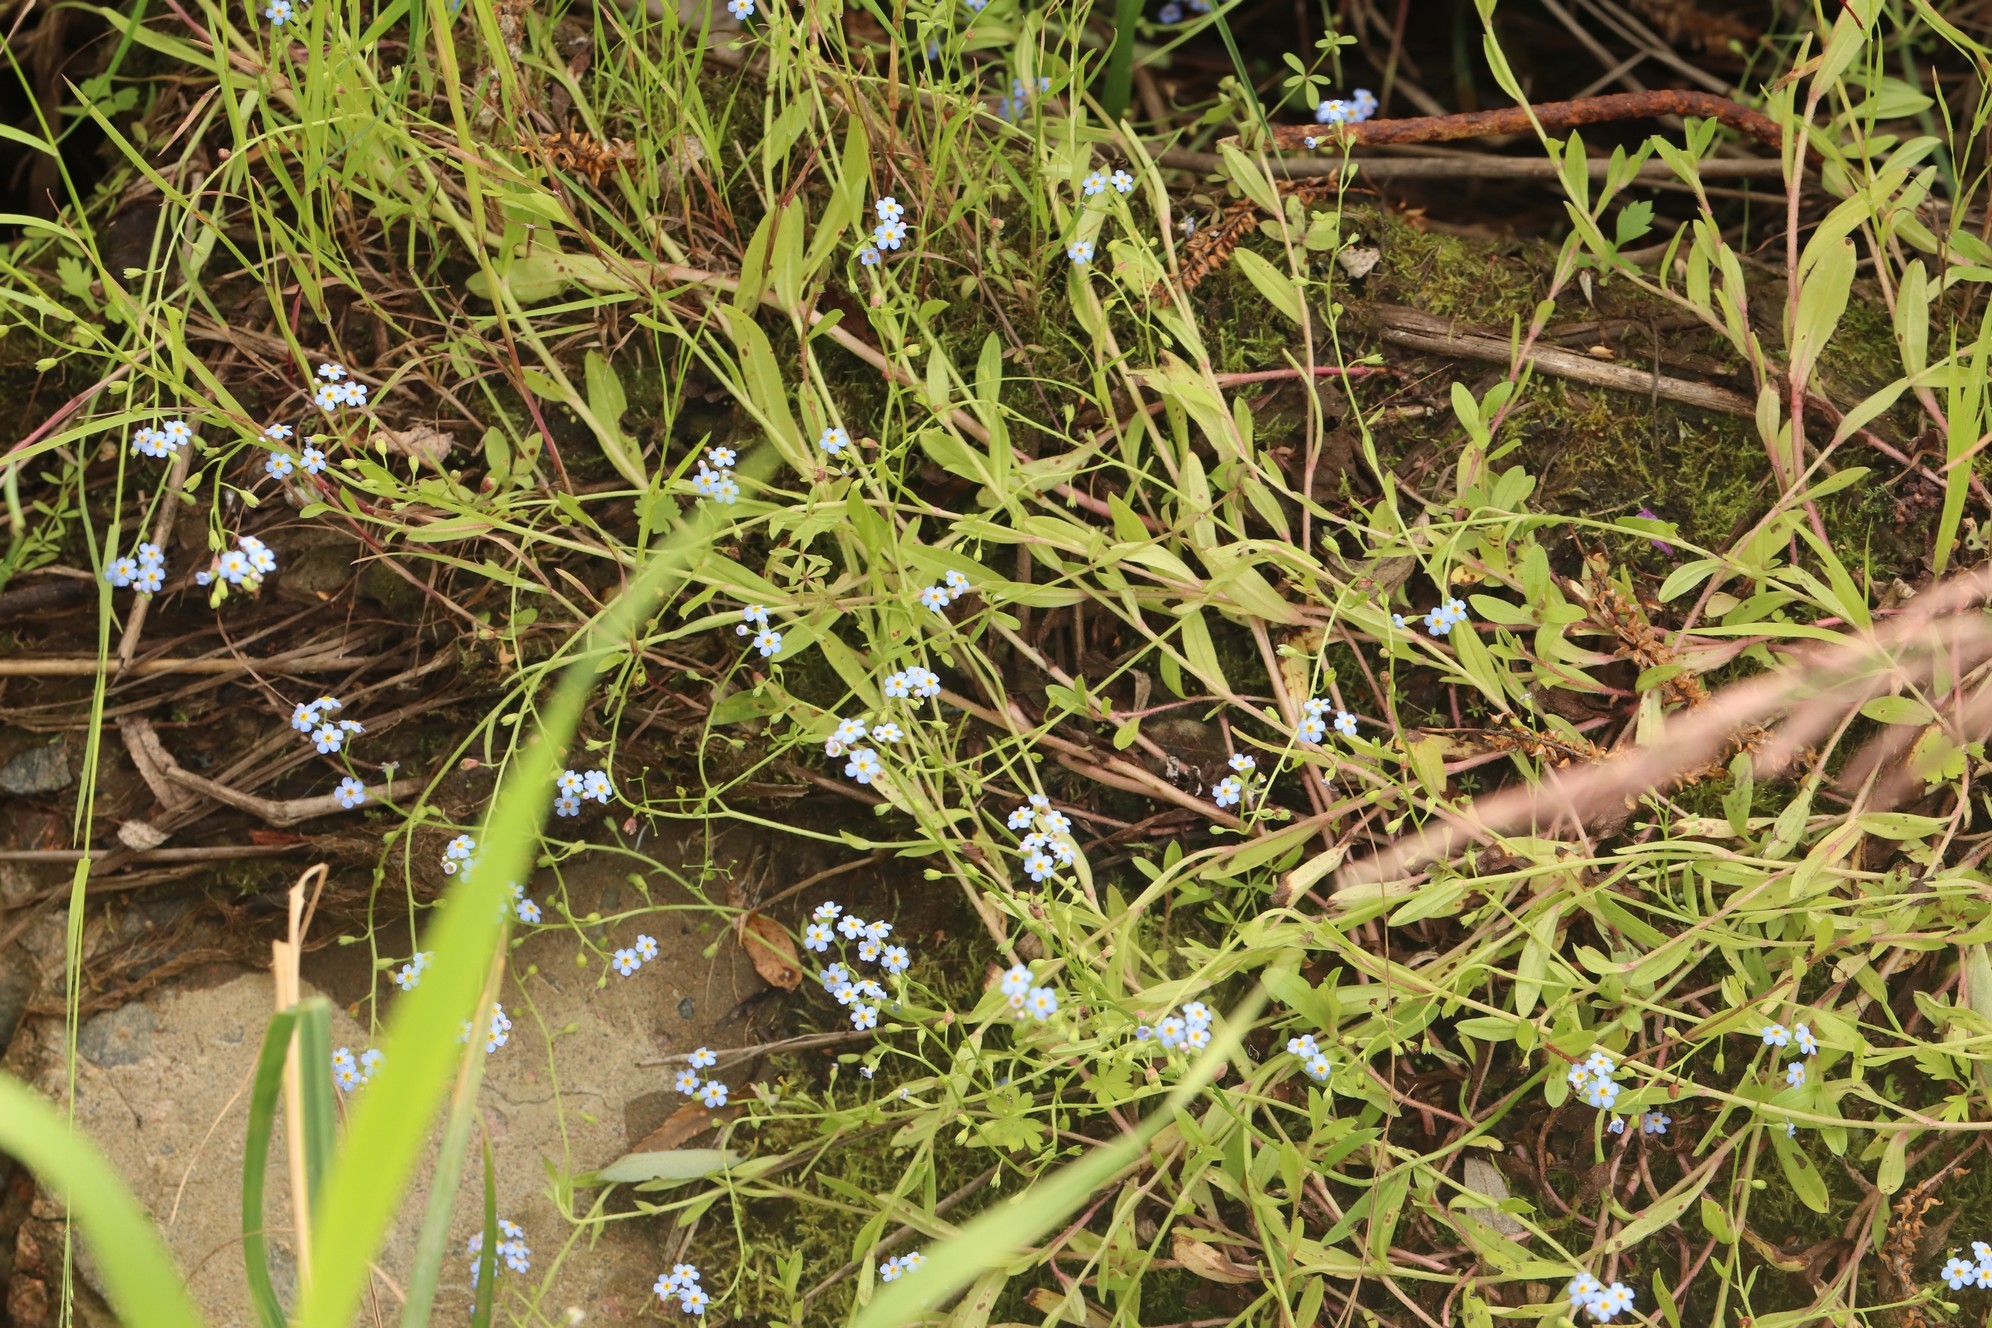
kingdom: Plantae
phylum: Tracheophyta
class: Magnoliopsida
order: Boraginales
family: Boraginaceae
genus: Myosotis
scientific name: Myosotis scorpioides
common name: Water forget-me-not
